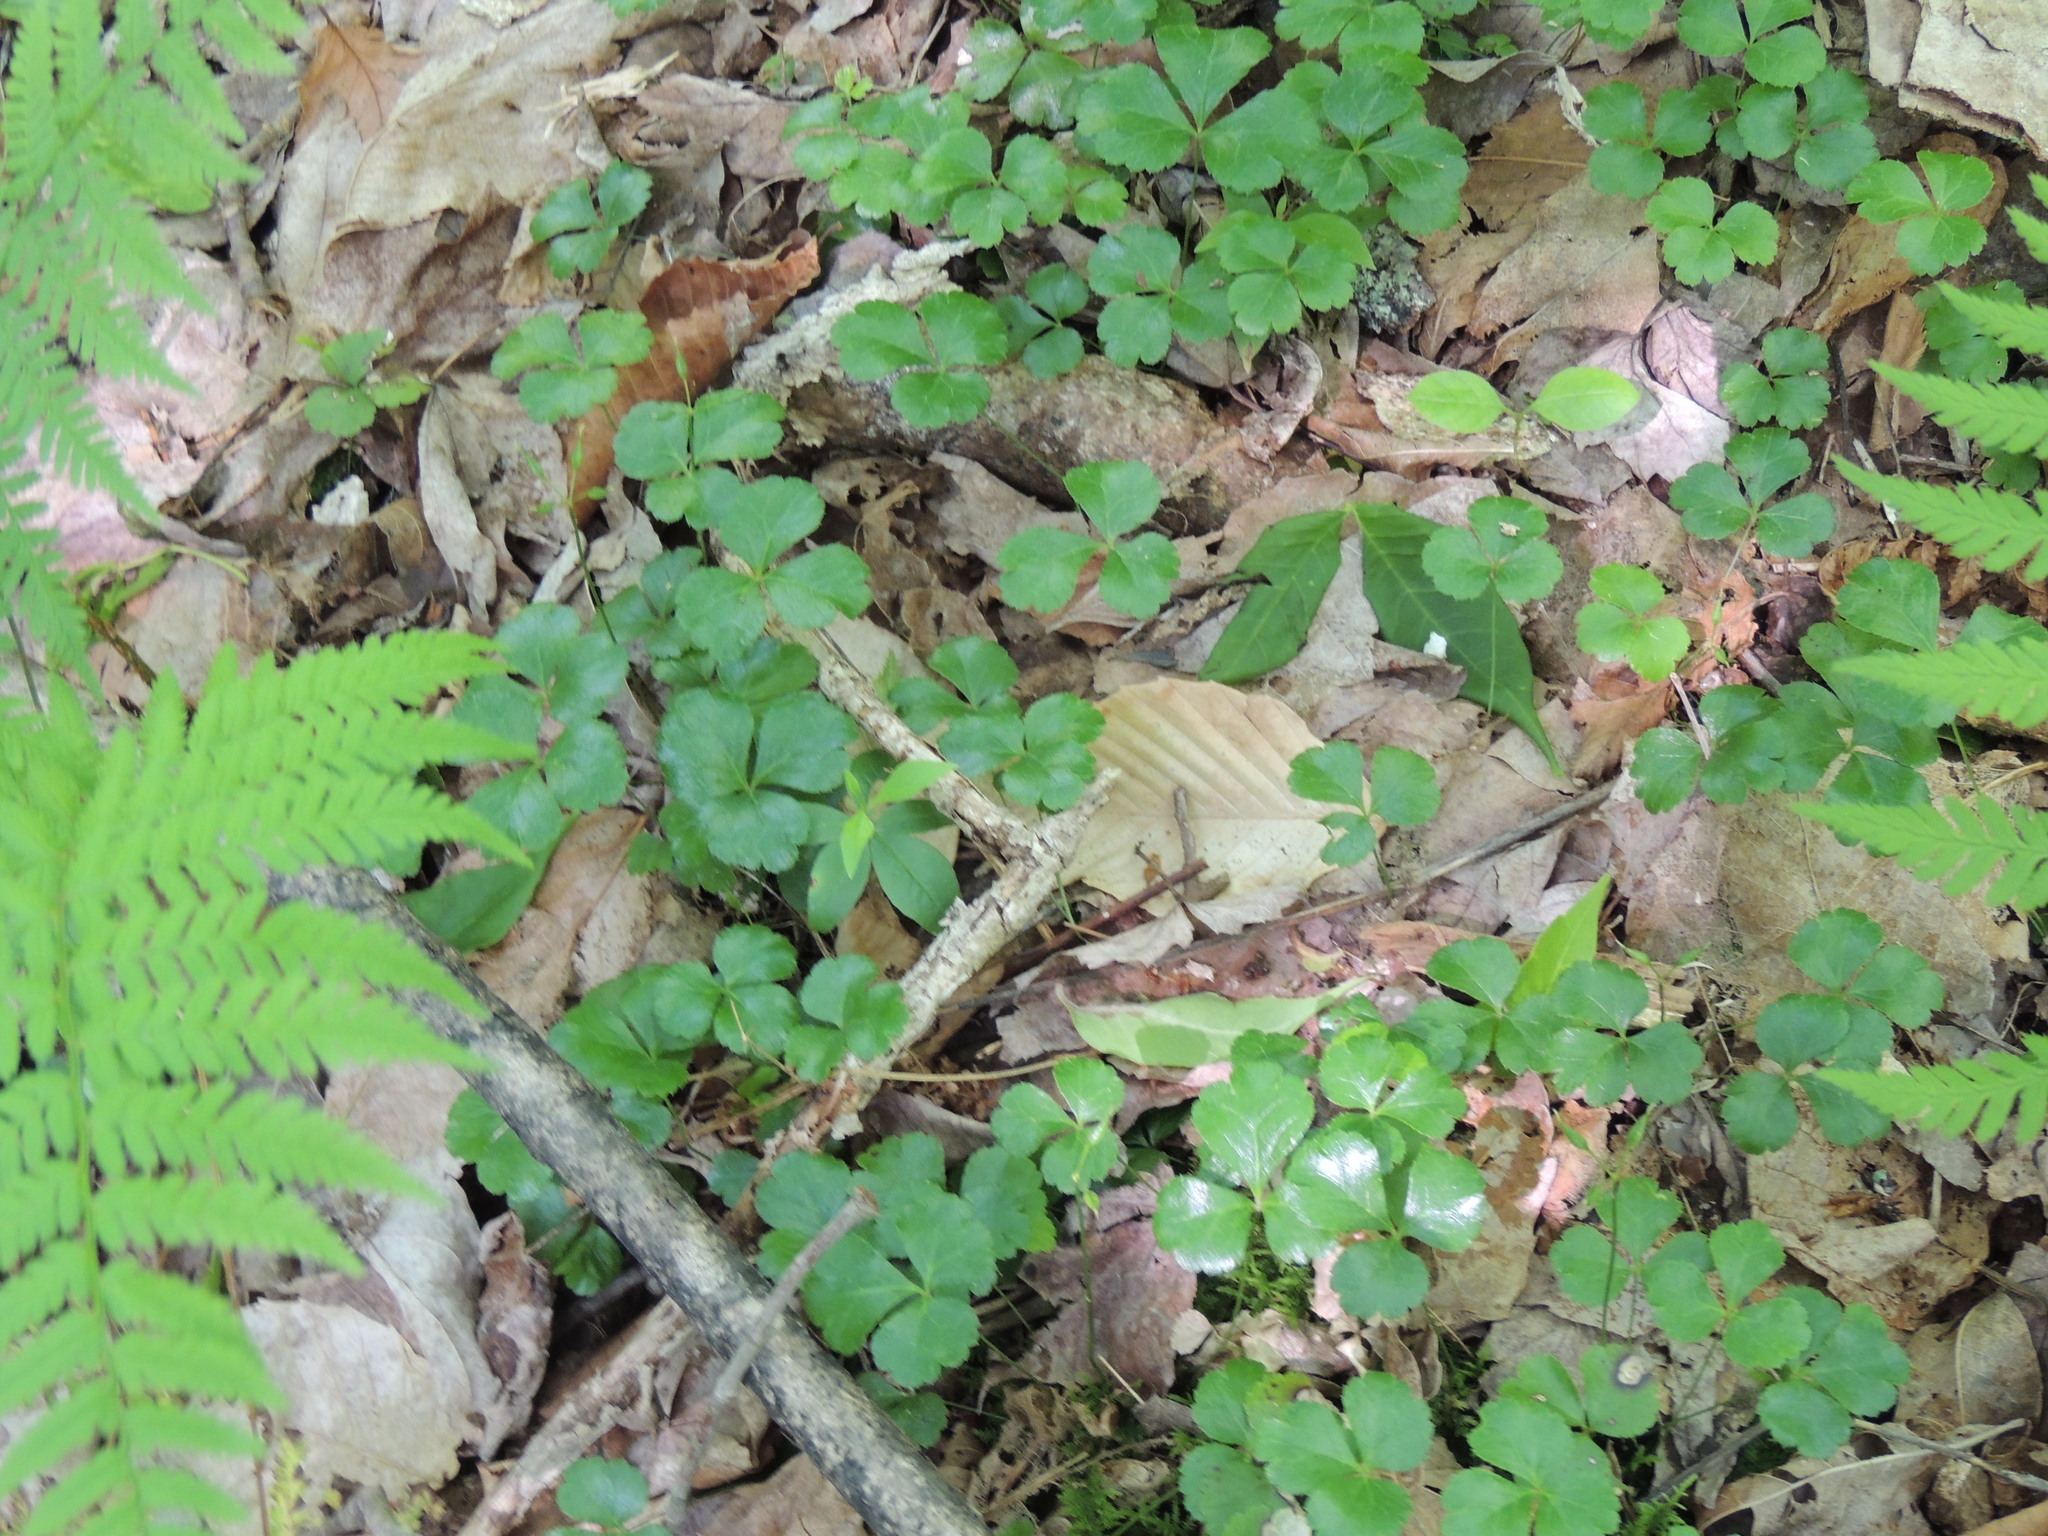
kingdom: Plantae
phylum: Tracheophyta
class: Magnoliopsida
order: Ranunculales
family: Ranunculaceae
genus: Coptis
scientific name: Coptis trifolia
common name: Canker-root
